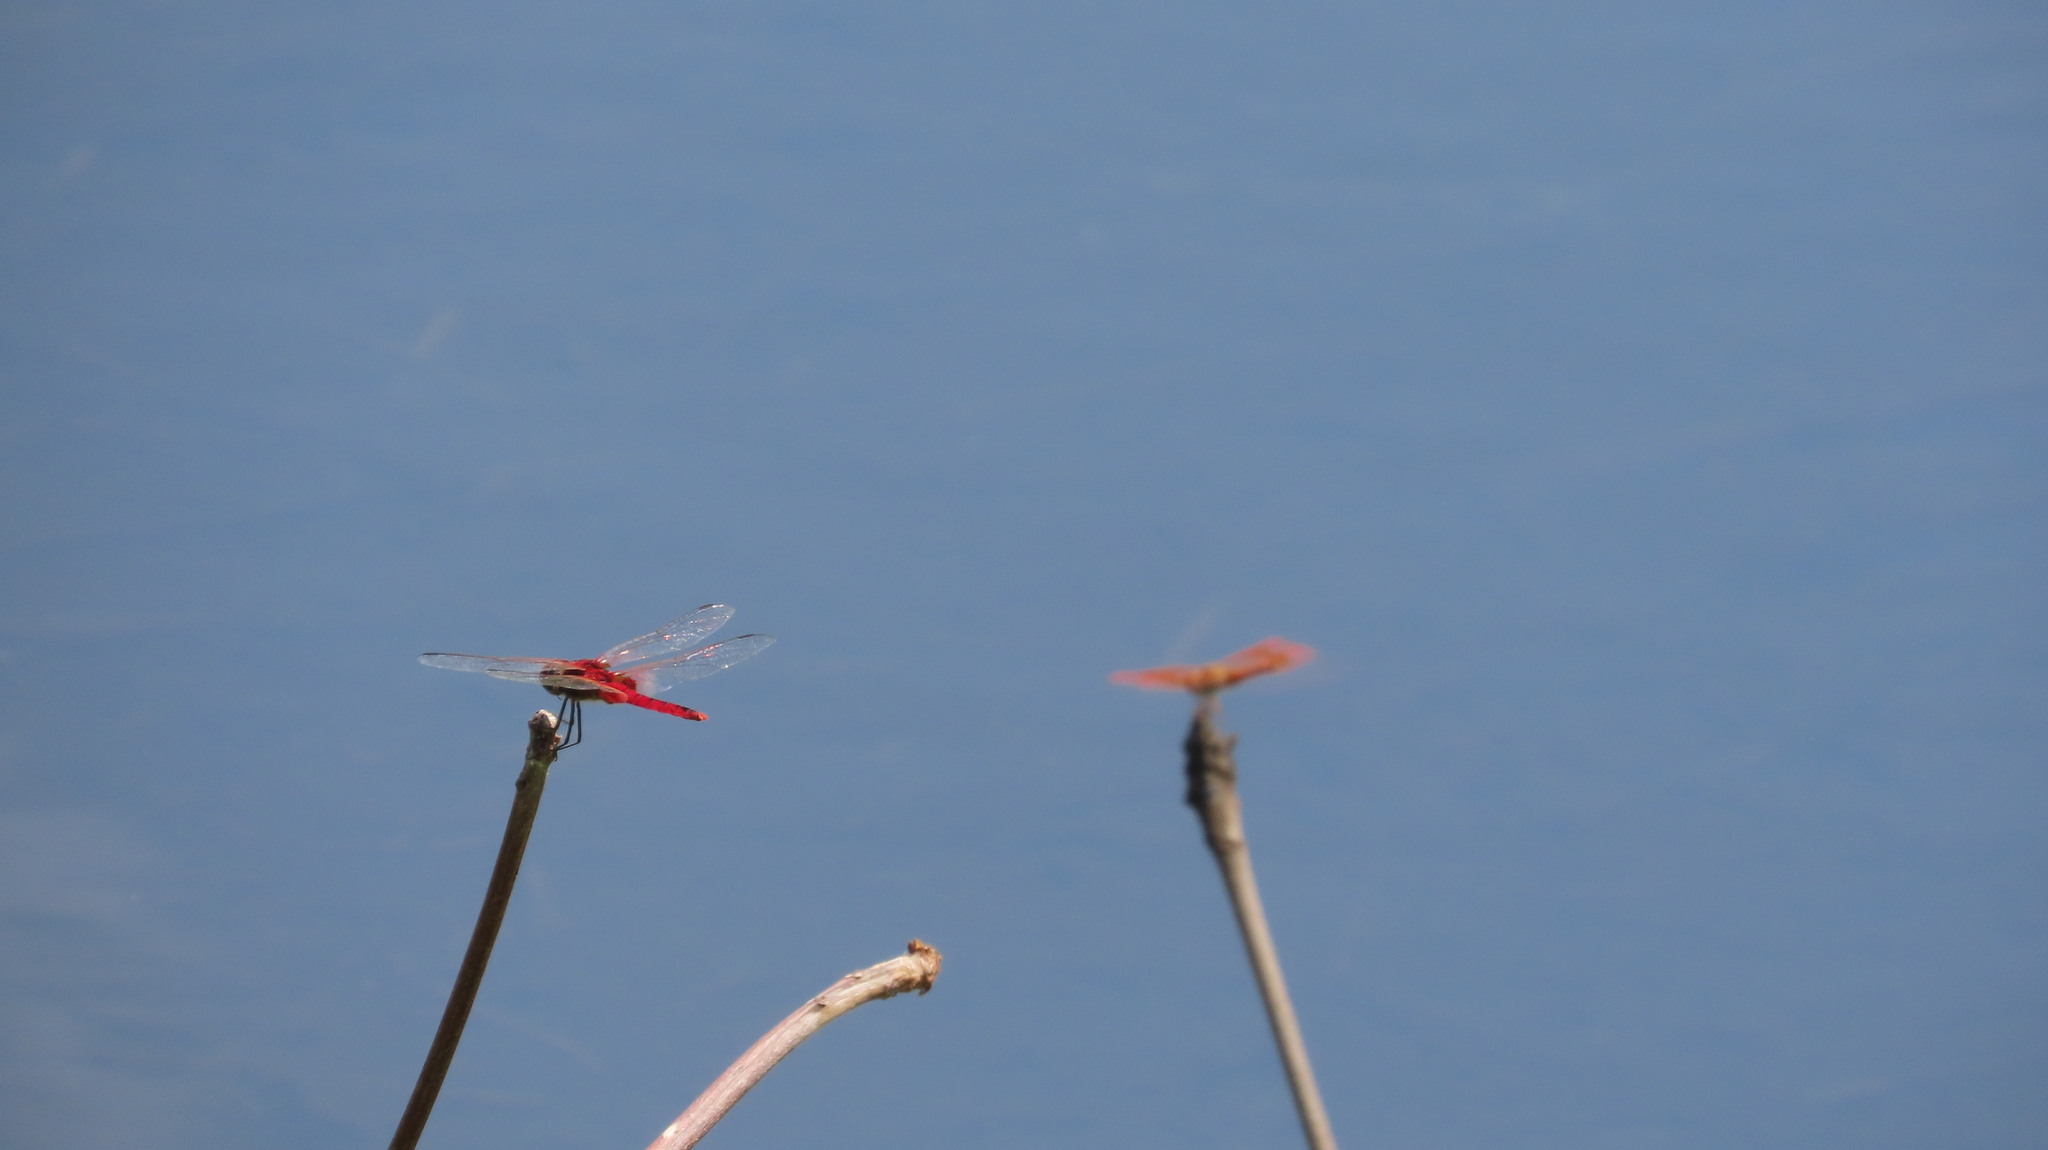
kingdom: Animalia
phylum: Arthropoda
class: Insecta
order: Odonata
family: Libellulidae
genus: Urothemis
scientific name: Urothemis signata
